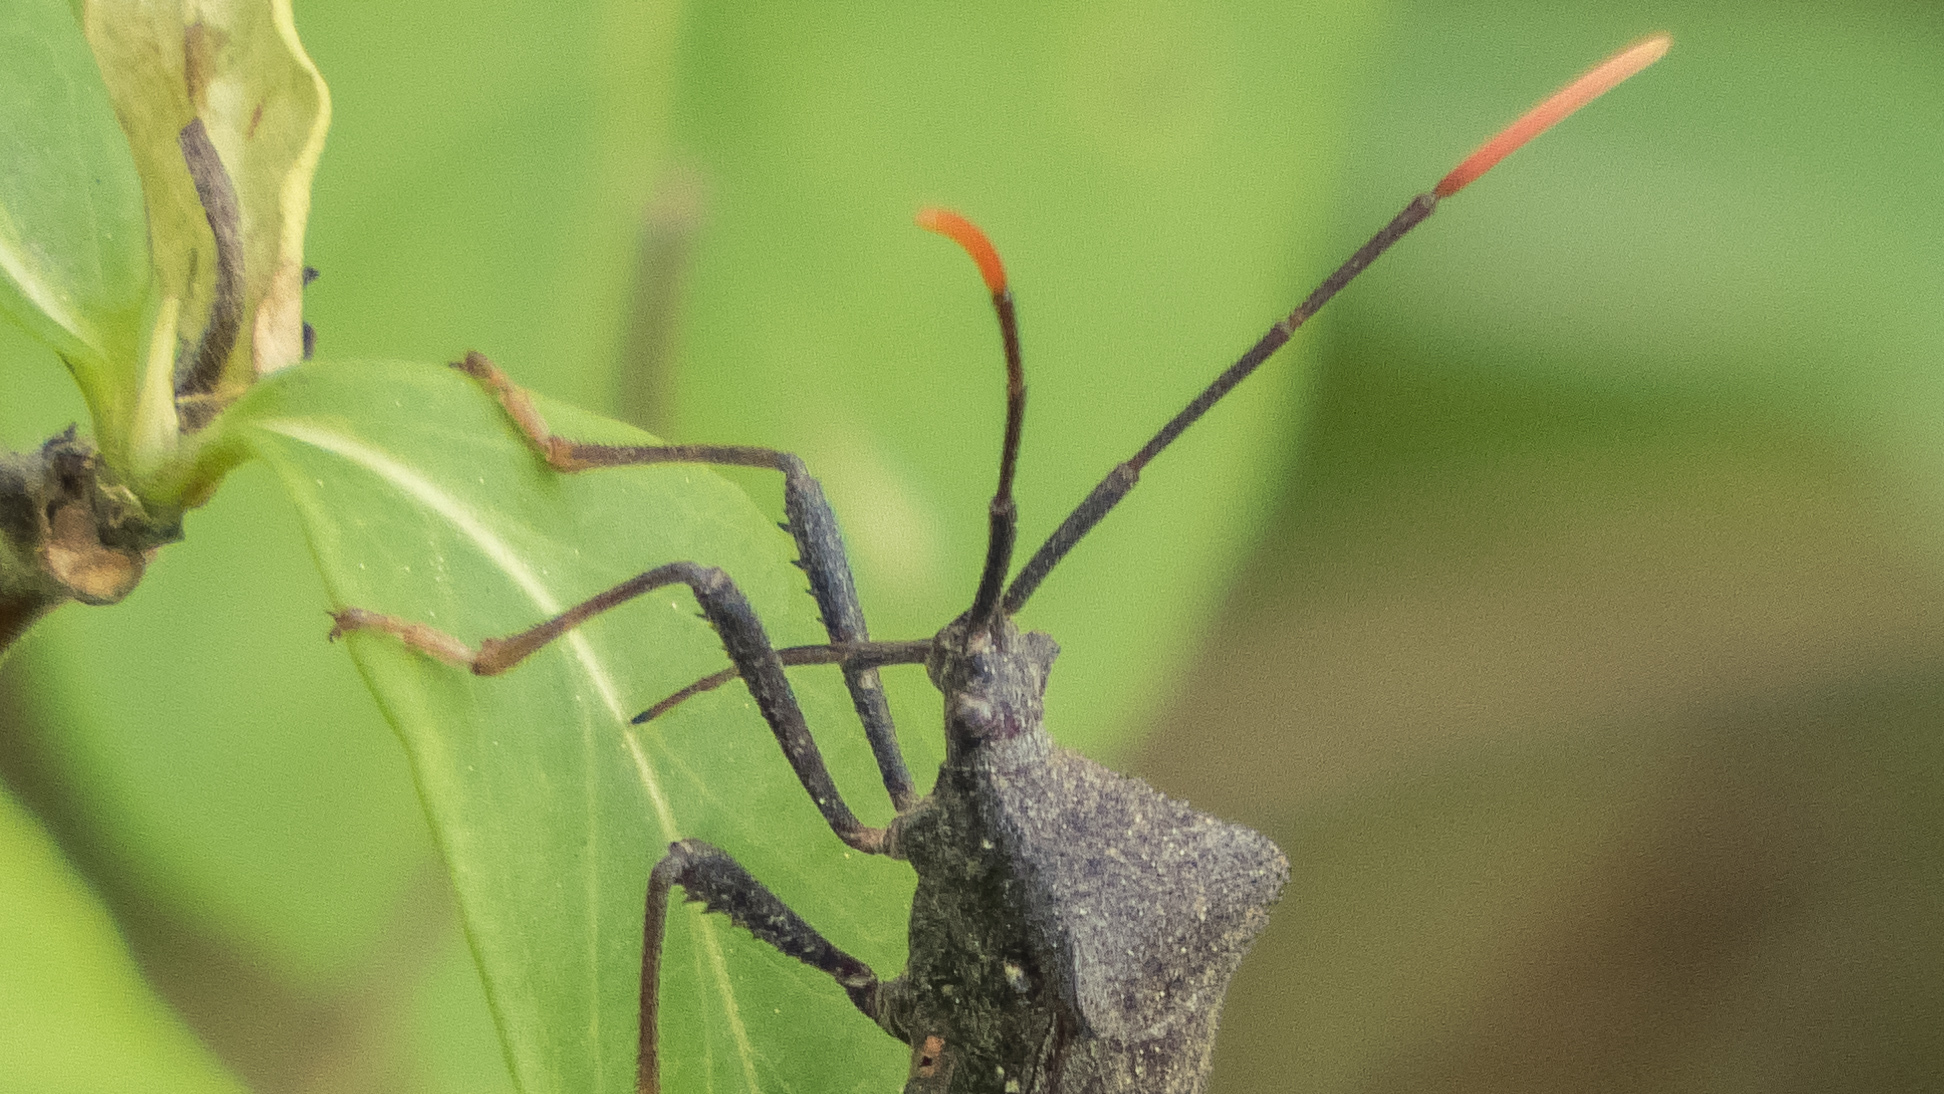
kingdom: Animalia
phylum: Arthropoda
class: Insecta
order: Hemiptera
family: Coreidae
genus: Acanthocephala
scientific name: Acanthocephala terminalis
